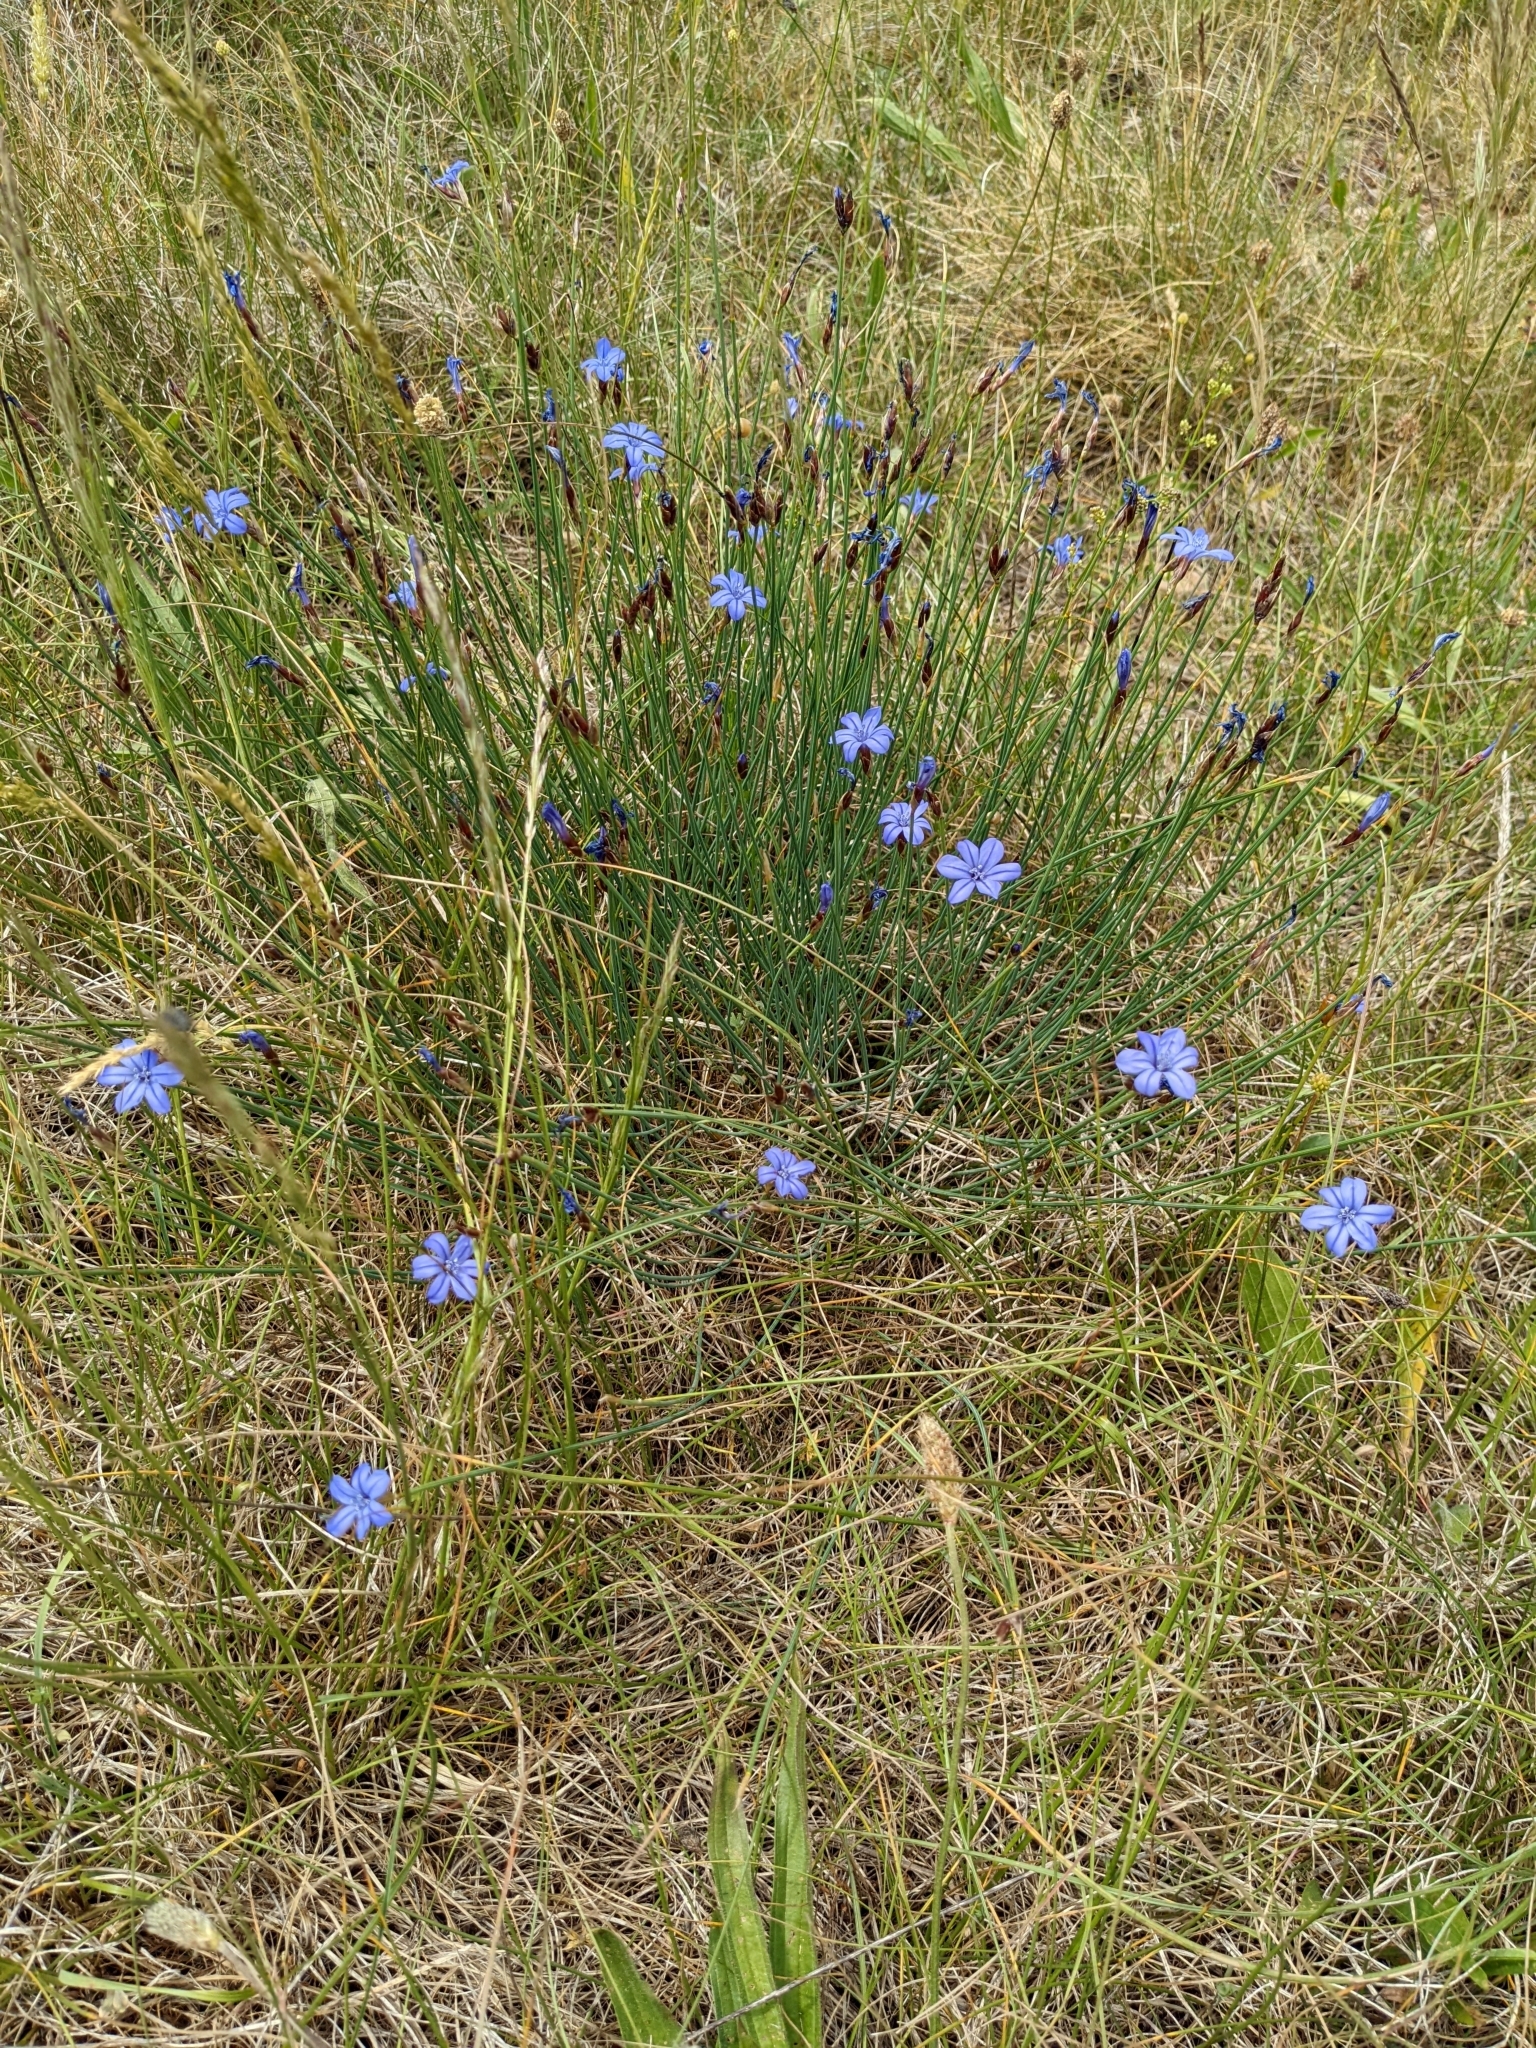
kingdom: Plantae
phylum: Tracheophyta
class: Liliopsida
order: Asparagales
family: Asparagaceae
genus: Aphyllanthes
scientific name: Aphyllanthes monspeliensis
